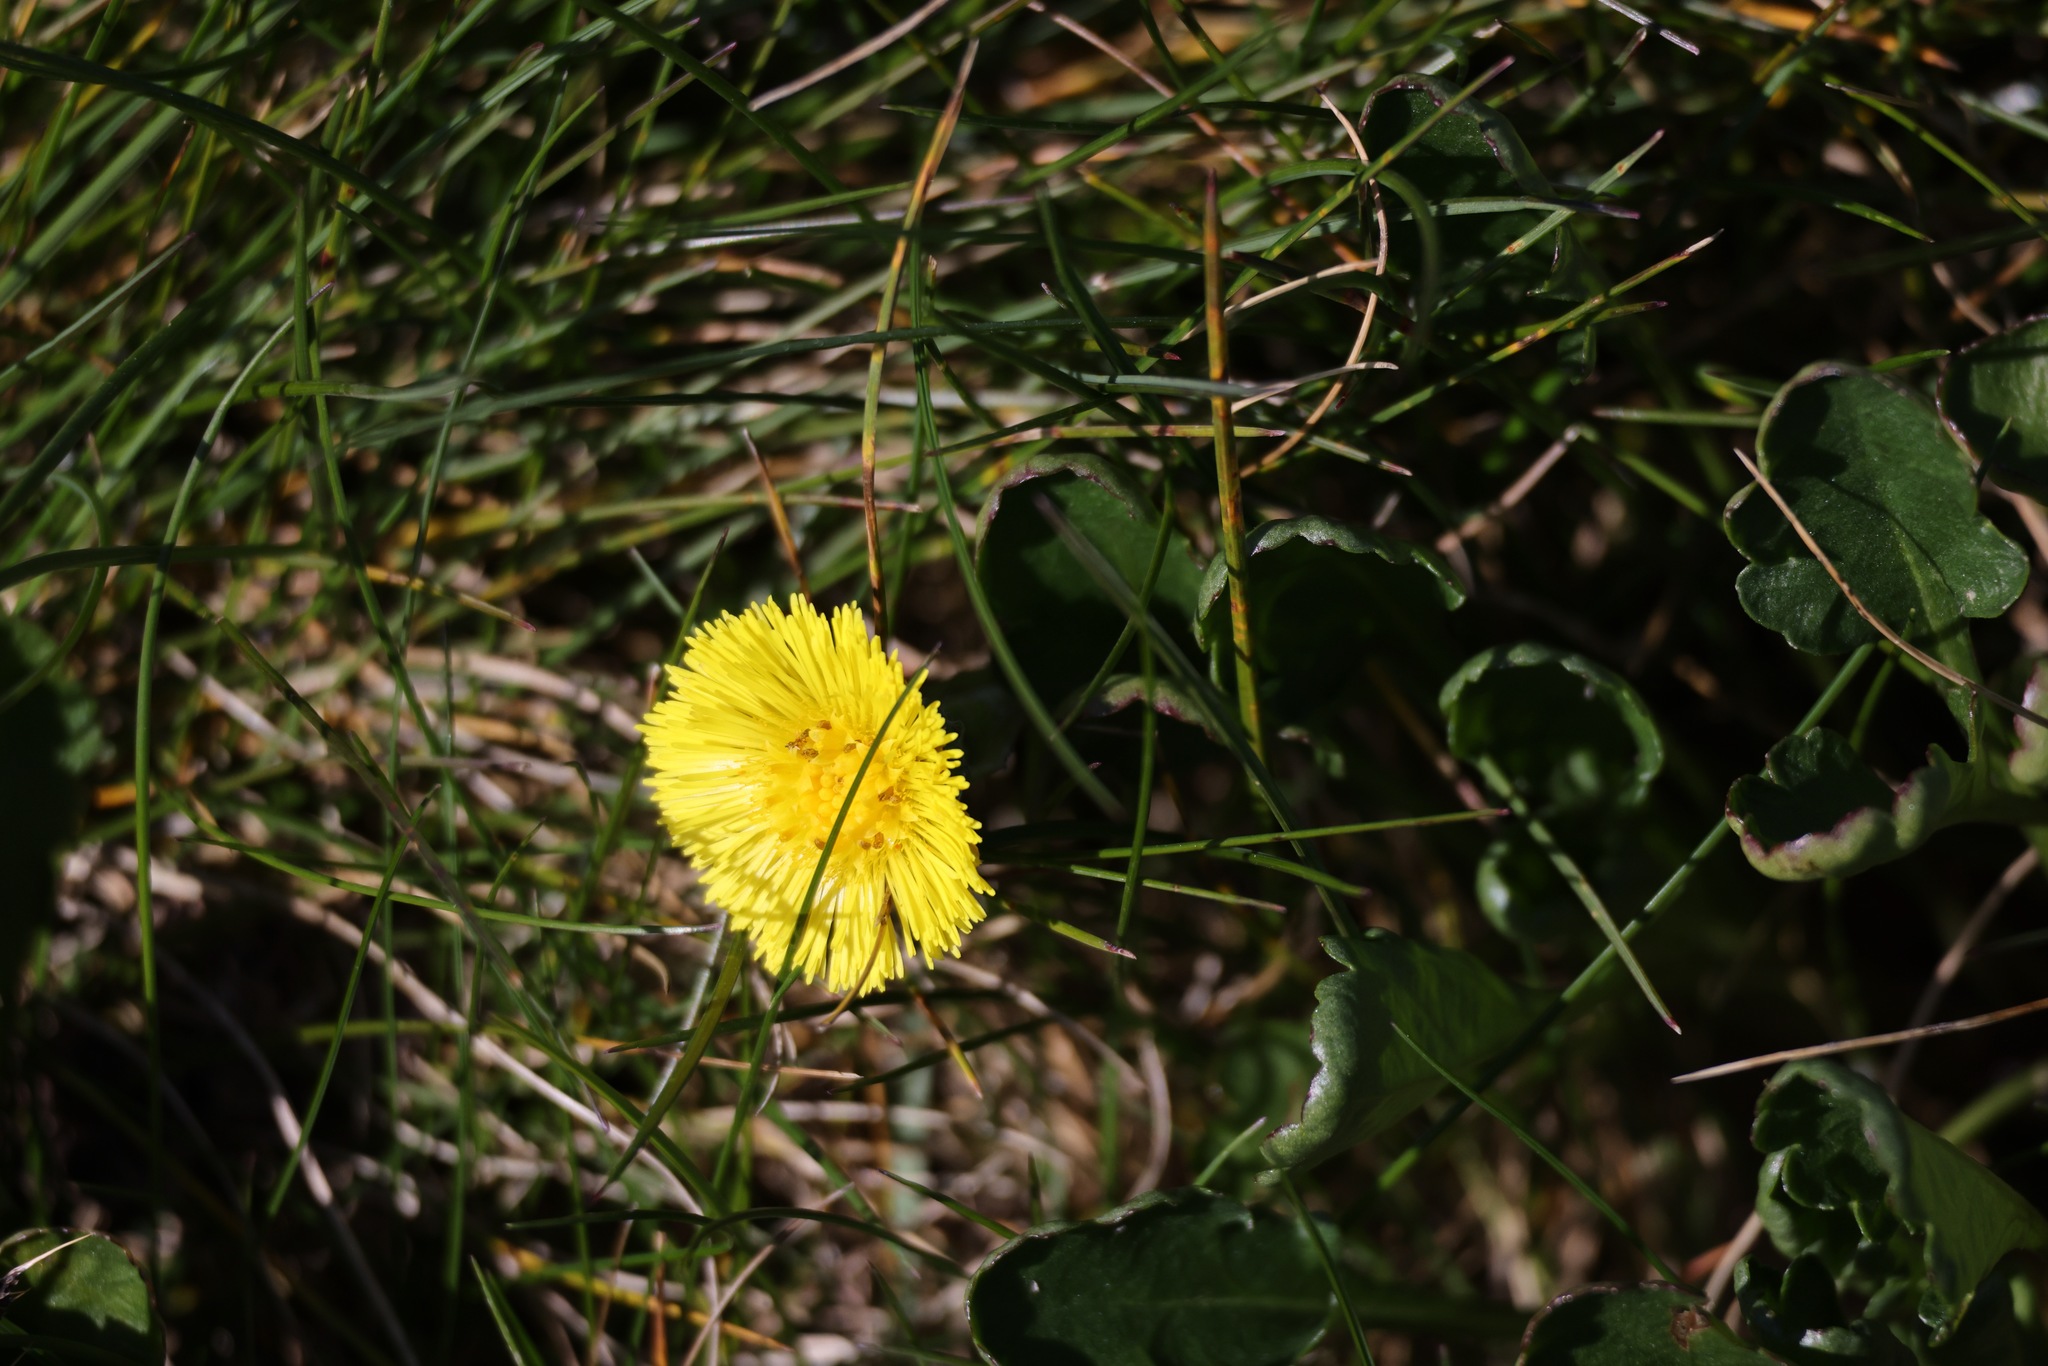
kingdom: Plantae
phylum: Tracheophyta
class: Magnoliopsida
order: Asterales
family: Asteraceae
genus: Tussilago
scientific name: Tussilago farfara
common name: Coltsfoot
